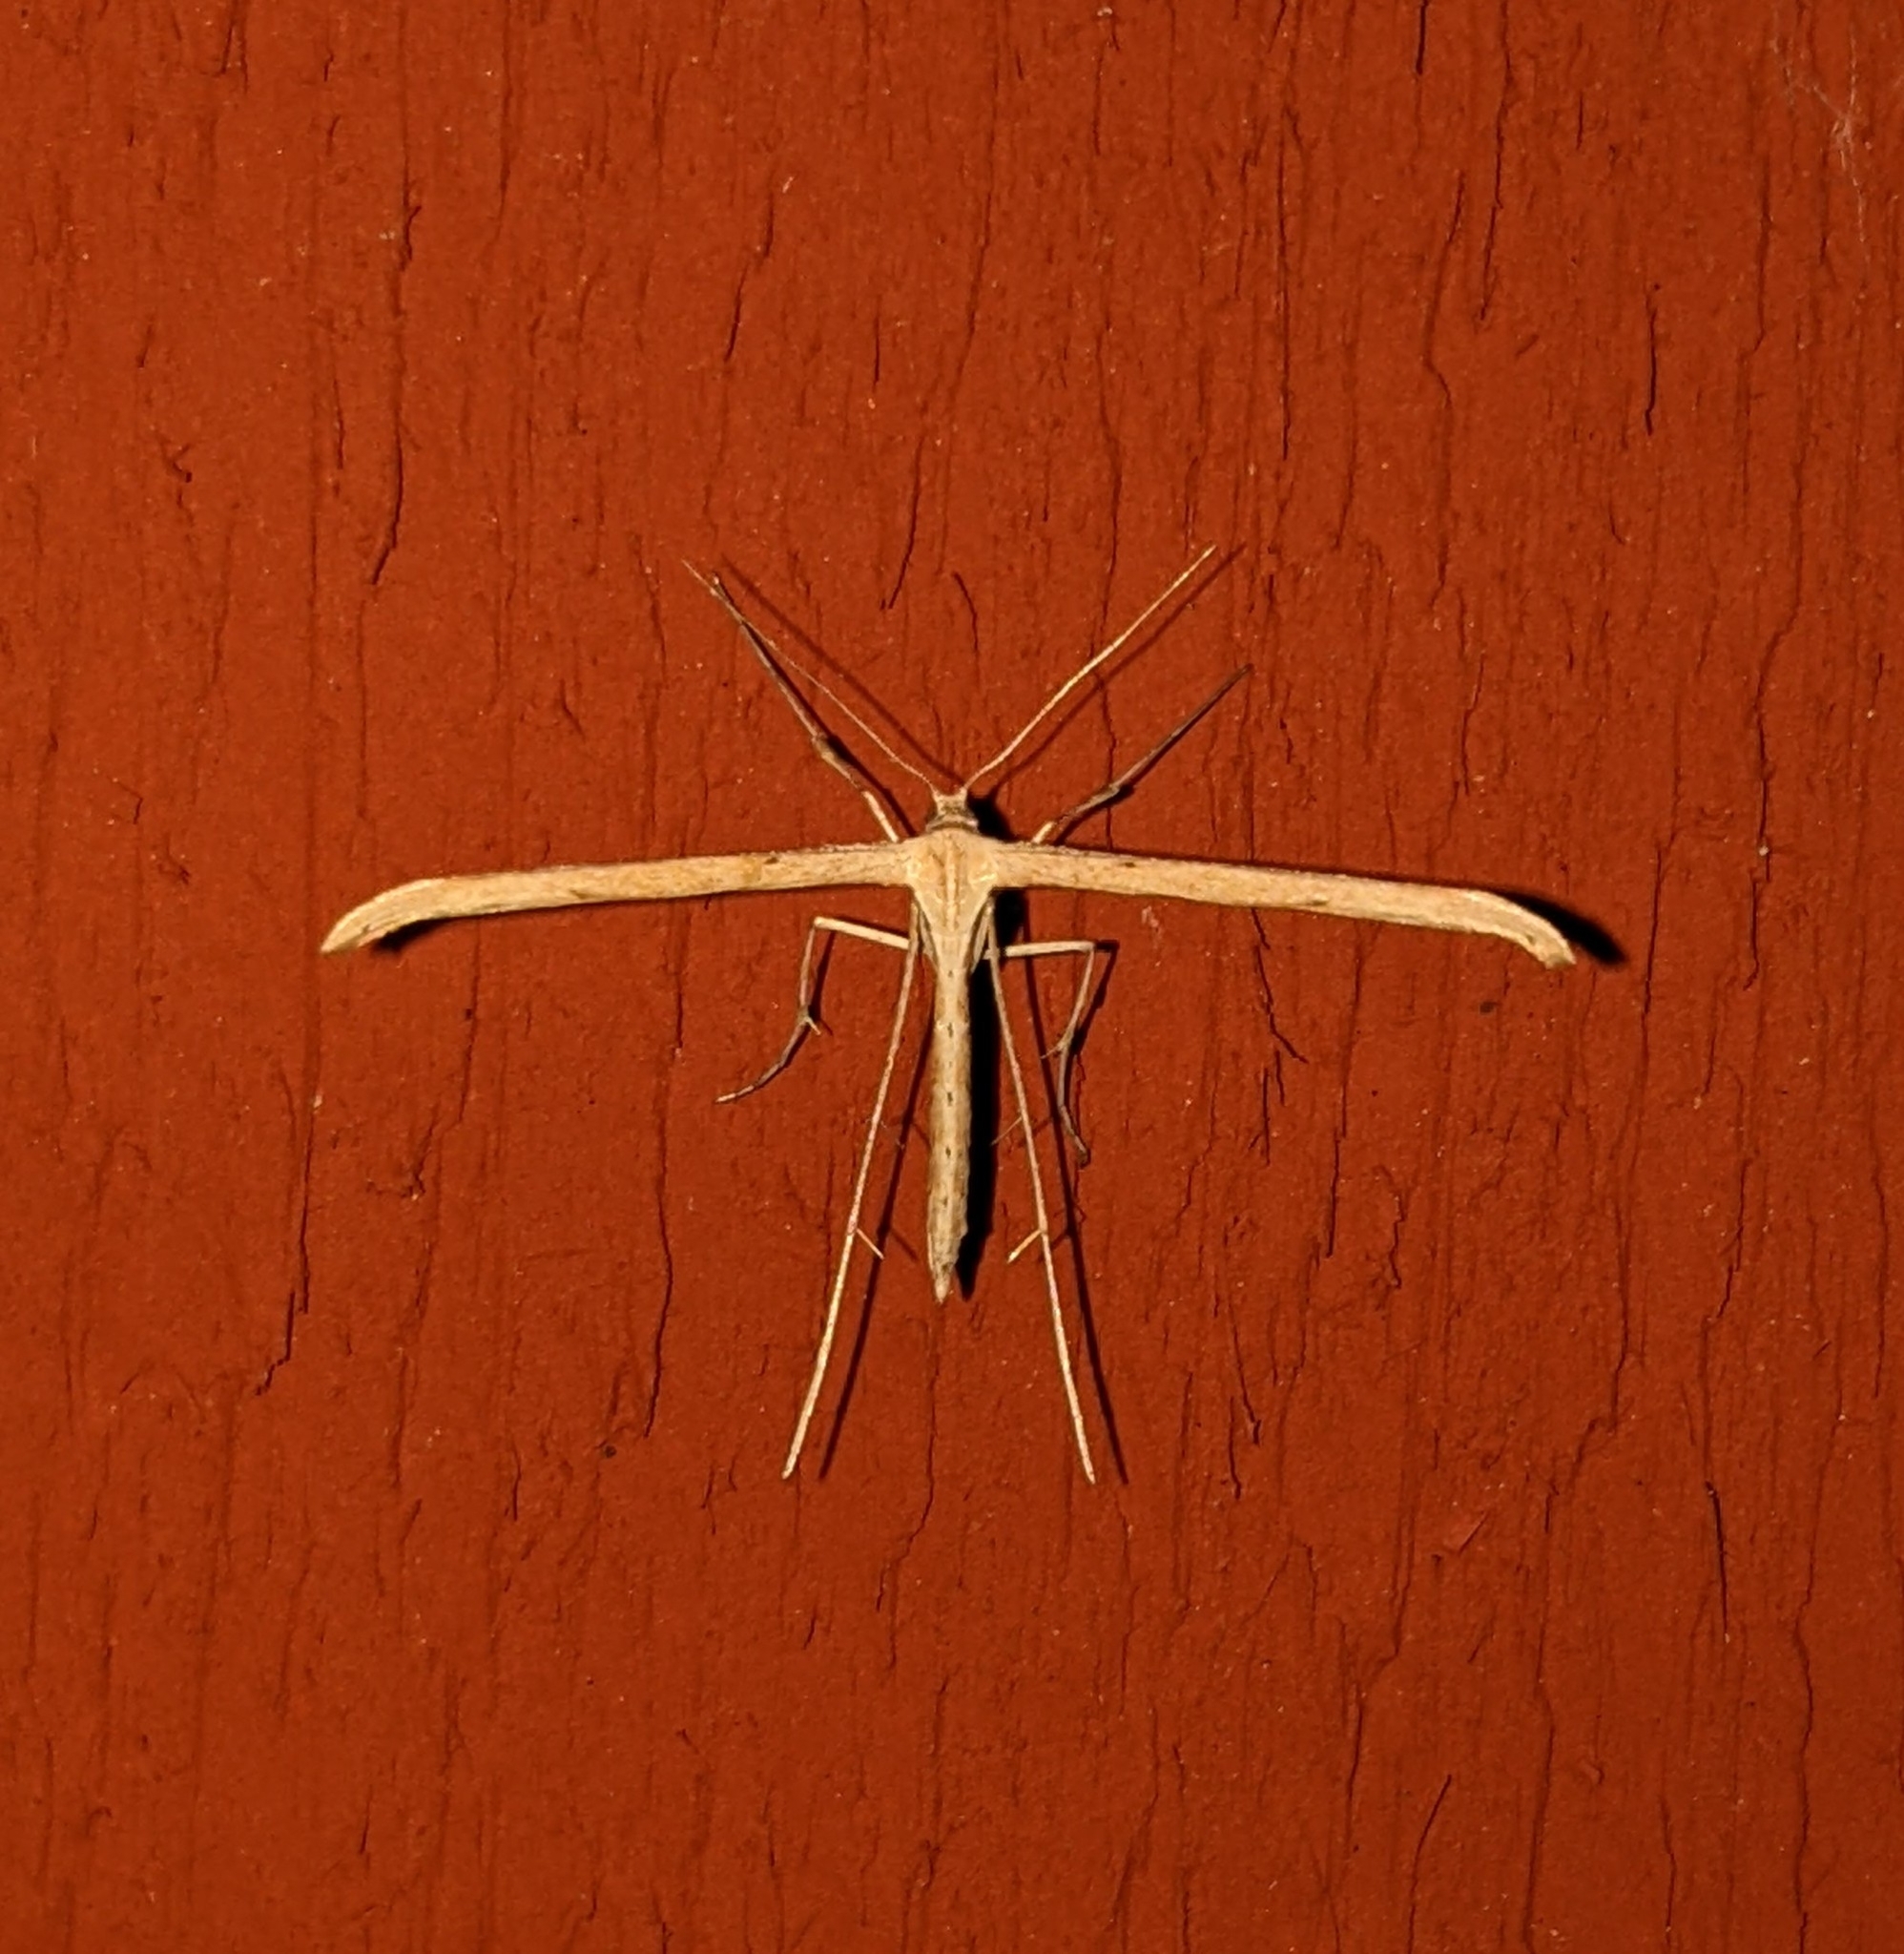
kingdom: Animalia
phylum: Arthropoda
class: Insecta
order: Lepidoptera
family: Pterophoridae
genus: Emmelina
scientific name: Emmelina monodactyla
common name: Common plume
